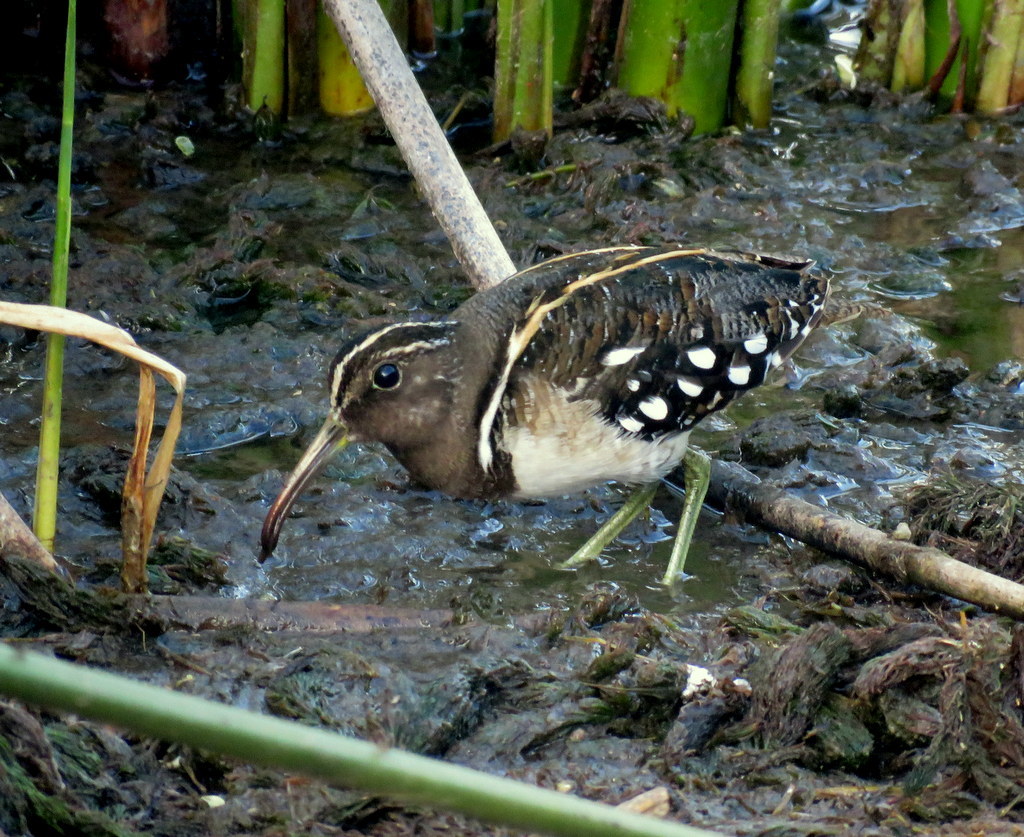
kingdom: Animalia
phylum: Chordata
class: Aves
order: Charadriiformes
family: Rostratulidae
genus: Nycticryphes
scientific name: Nycticryphes semicollaris
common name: South american painted-snipe
